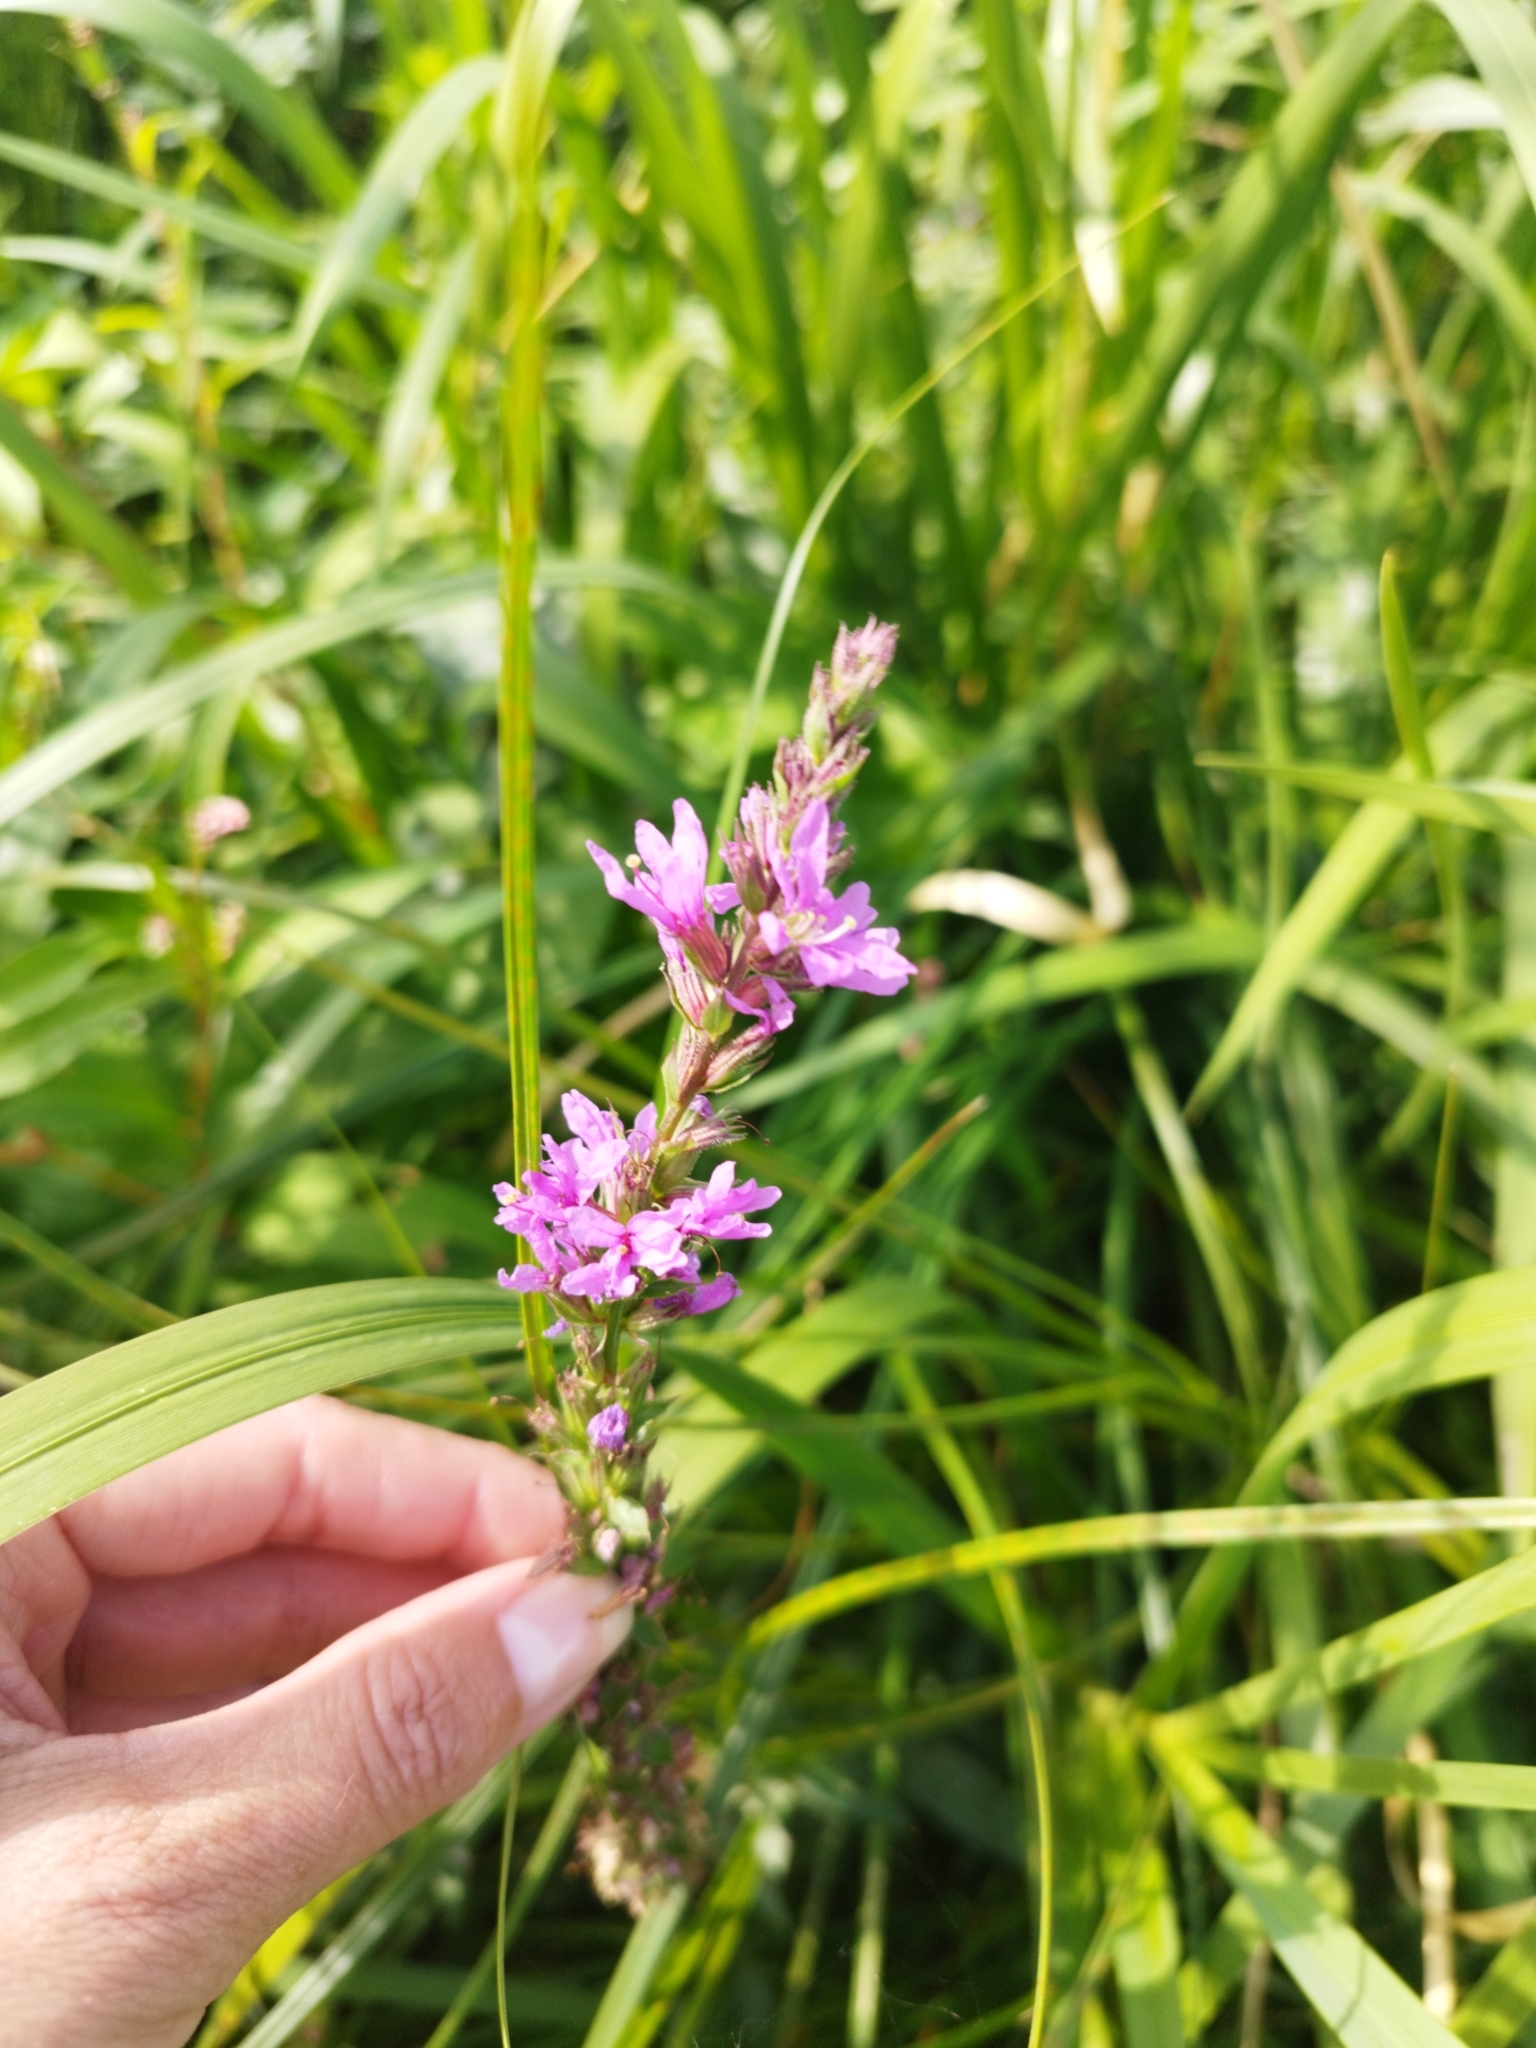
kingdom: Plantae
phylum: Tracheophyta
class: Magnoliopsida
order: Myrtales
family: Lythraceae
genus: Lythrum
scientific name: Lythrum salicaria
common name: Purple loosestrife
